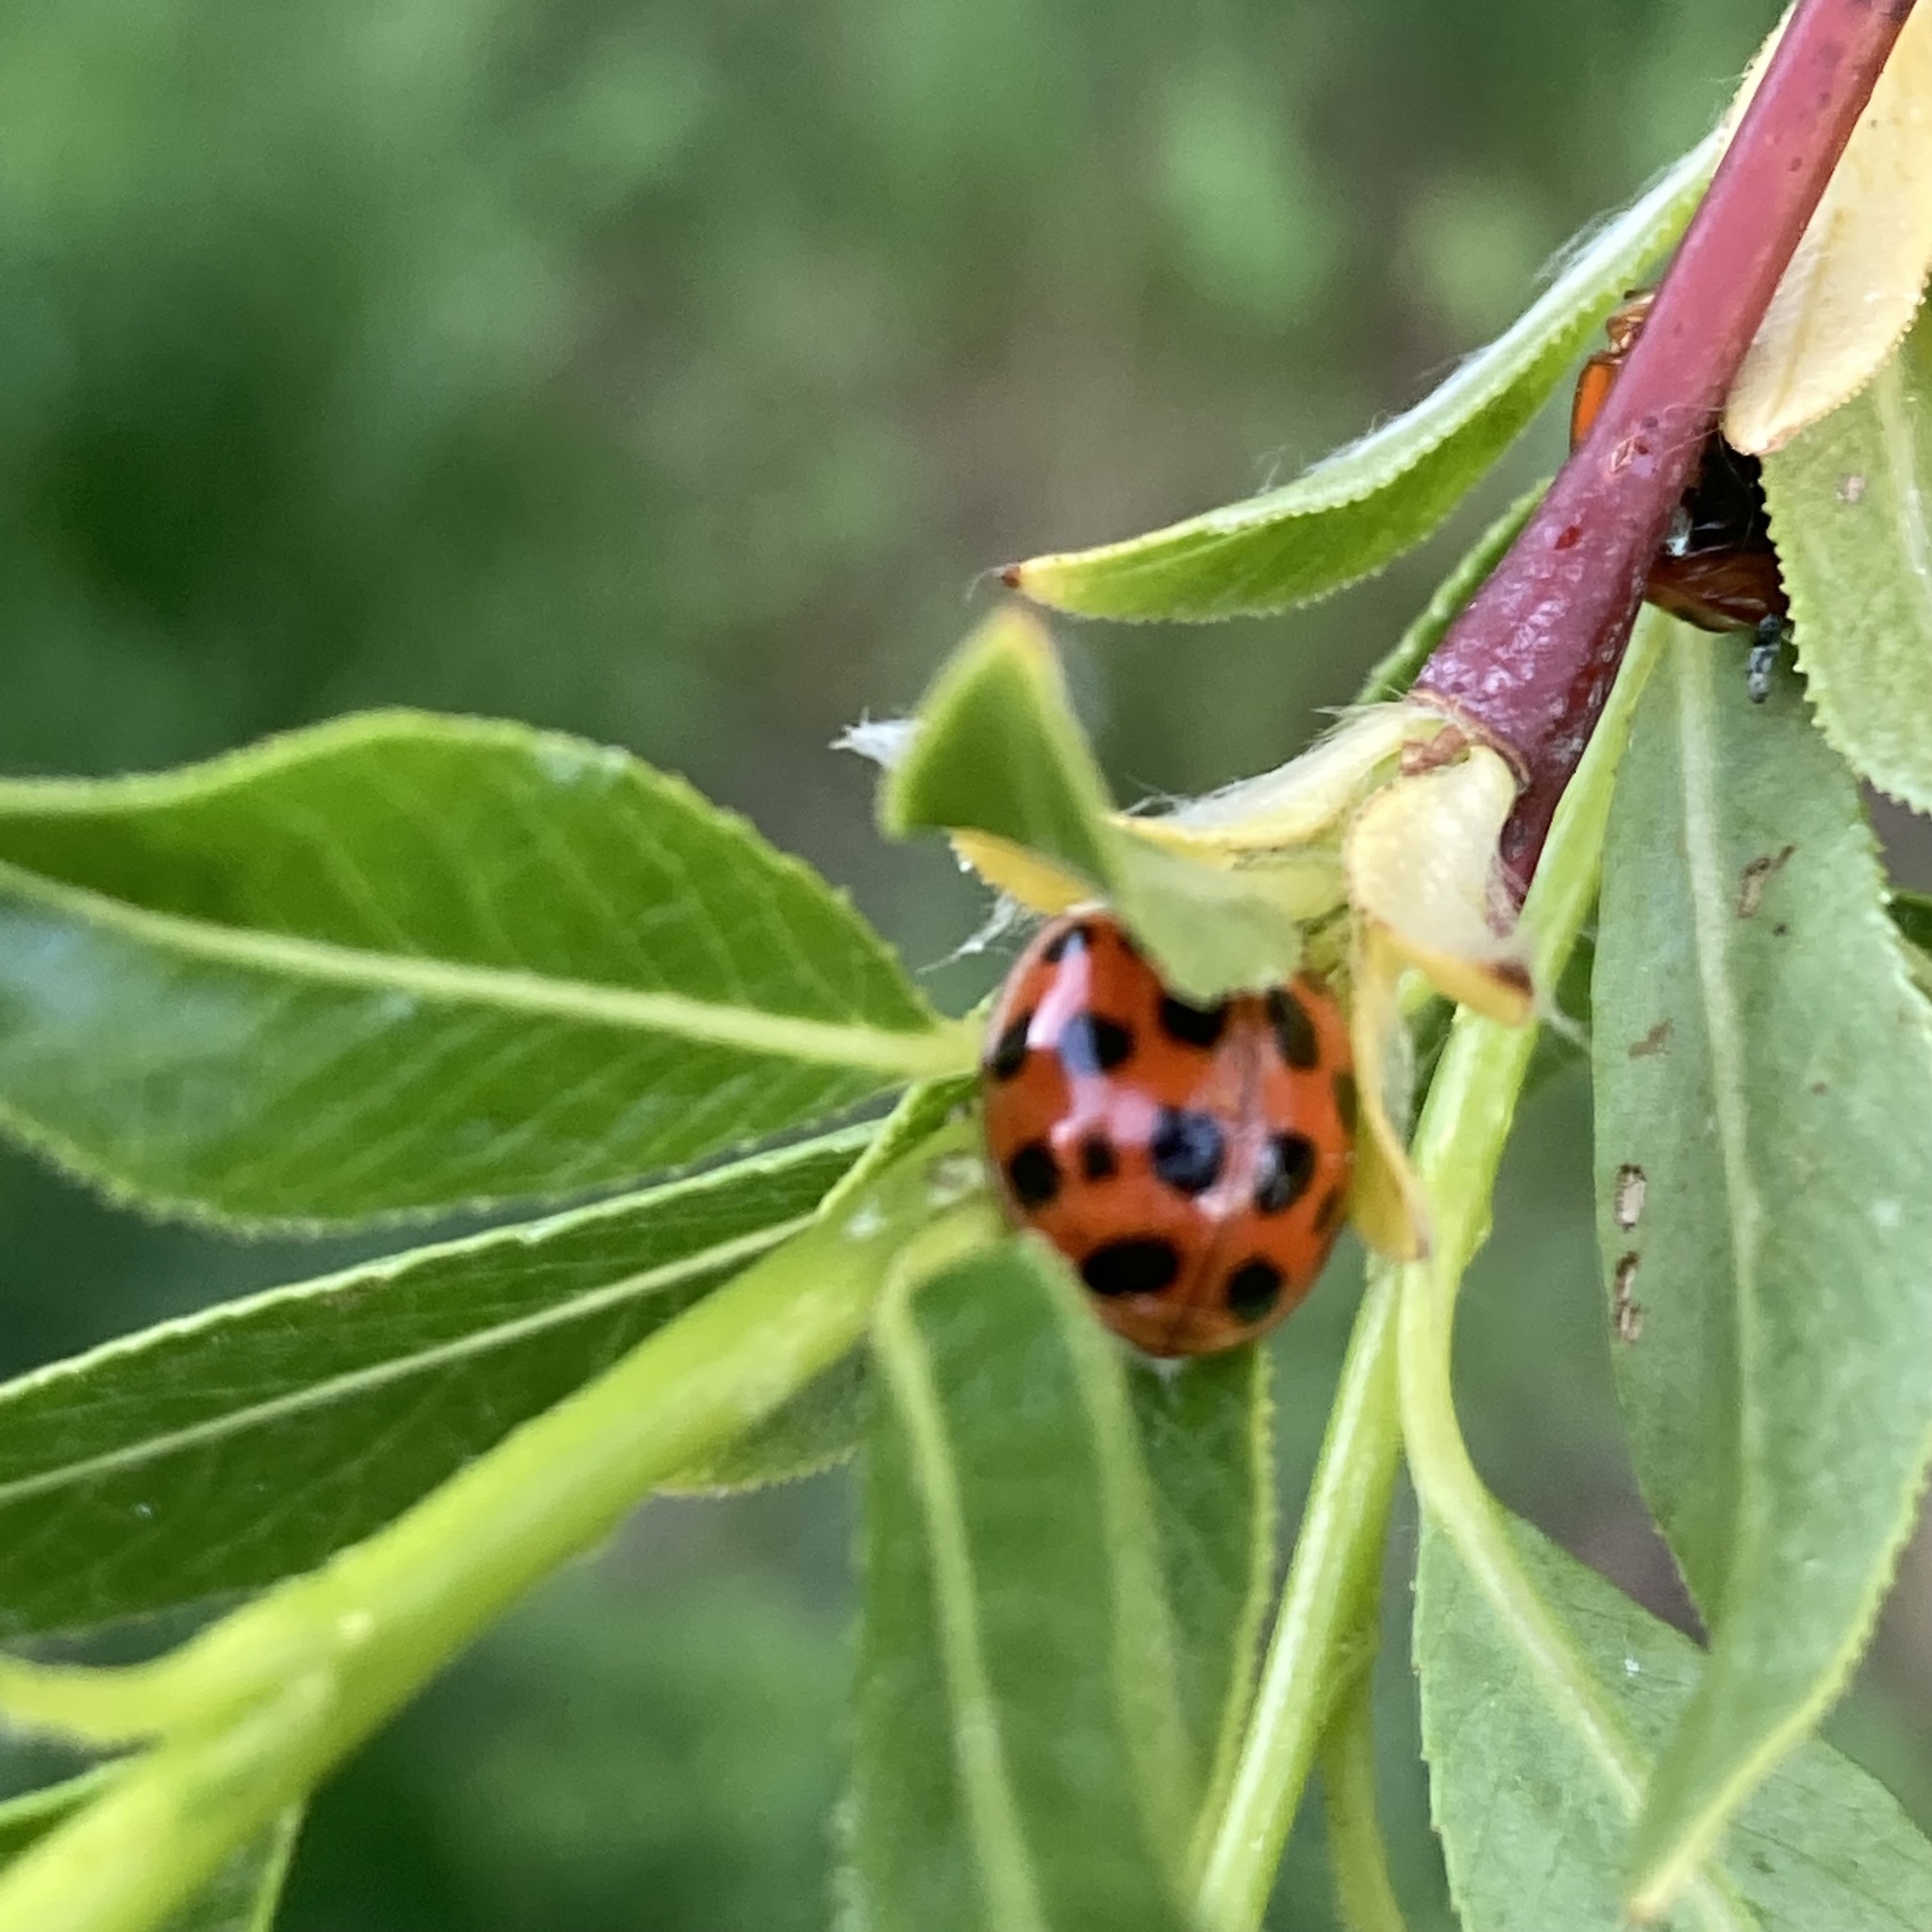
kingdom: Animalia
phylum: Arthropoda
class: Insecta
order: Coleoptera
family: Coccinellidae
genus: Harmonia
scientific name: Harmonia axyridis
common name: Harlequin ladybird
